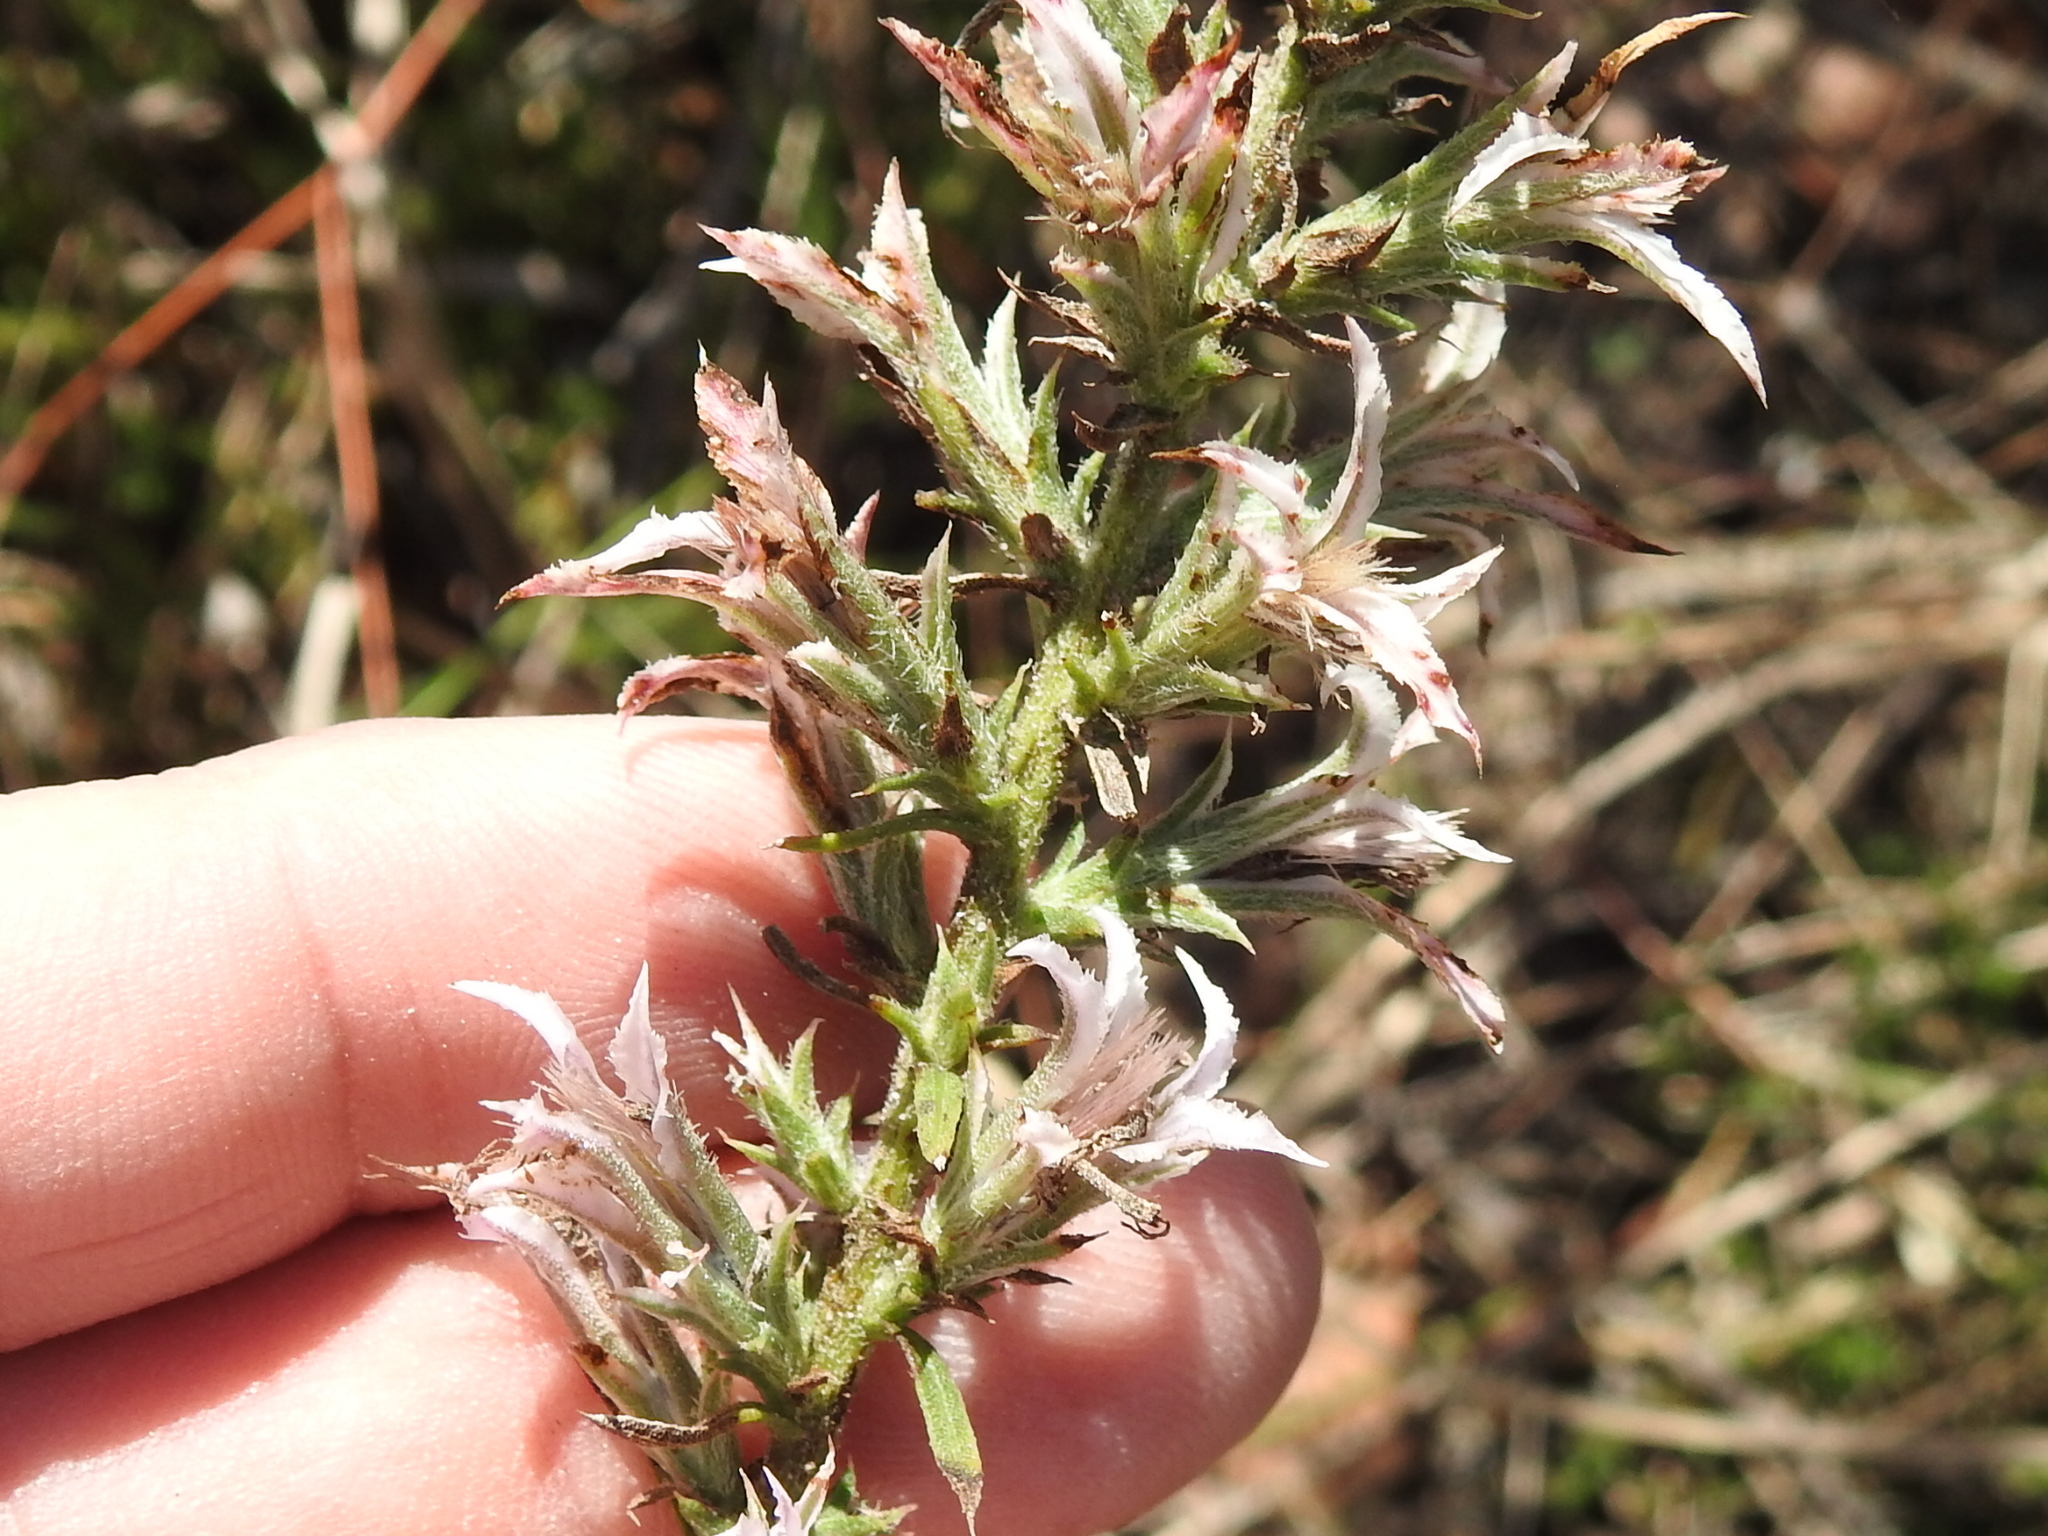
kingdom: Plantae
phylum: Tracheophyta
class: Magnoliopsida
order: Asterales
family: Asteraceae
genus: Liatris
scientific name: Liatris hesperelegans
